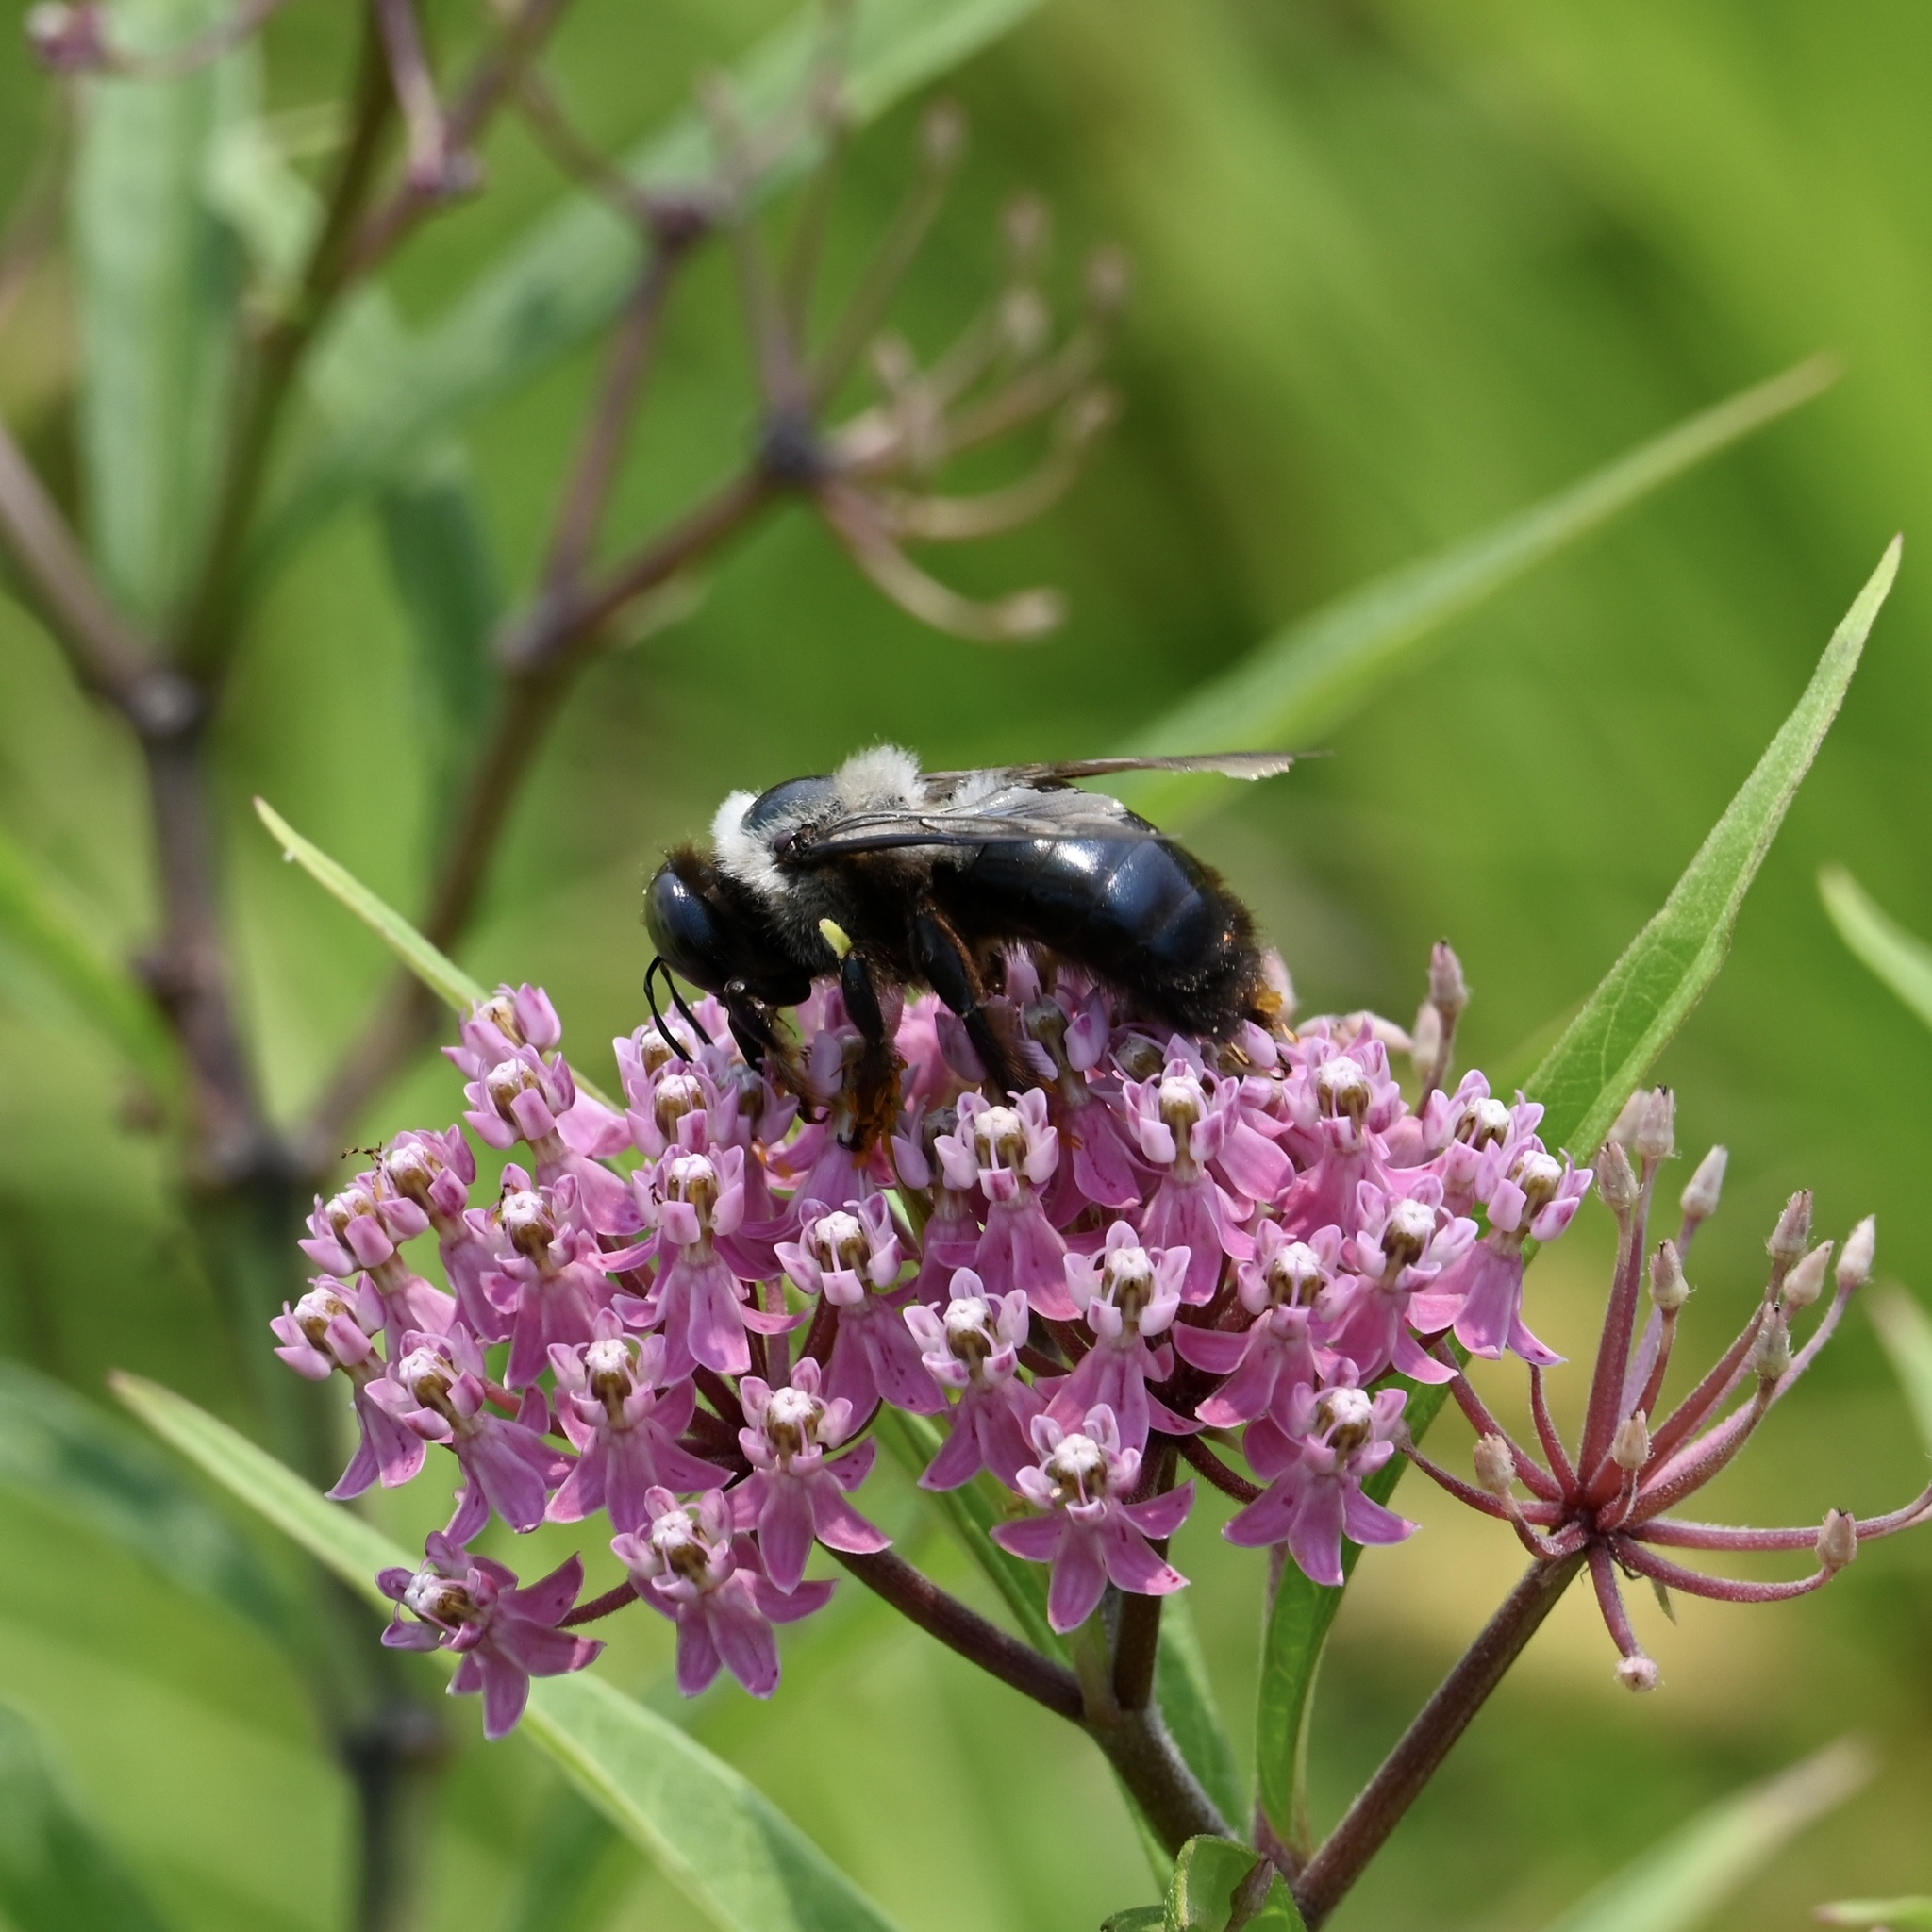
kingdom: Animalia
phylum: Arthropoda
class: Insecta
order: Hymenoptera
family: Apidae
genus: Xylocopa
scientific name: Xylocopa virginica
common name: Carpenter bee
